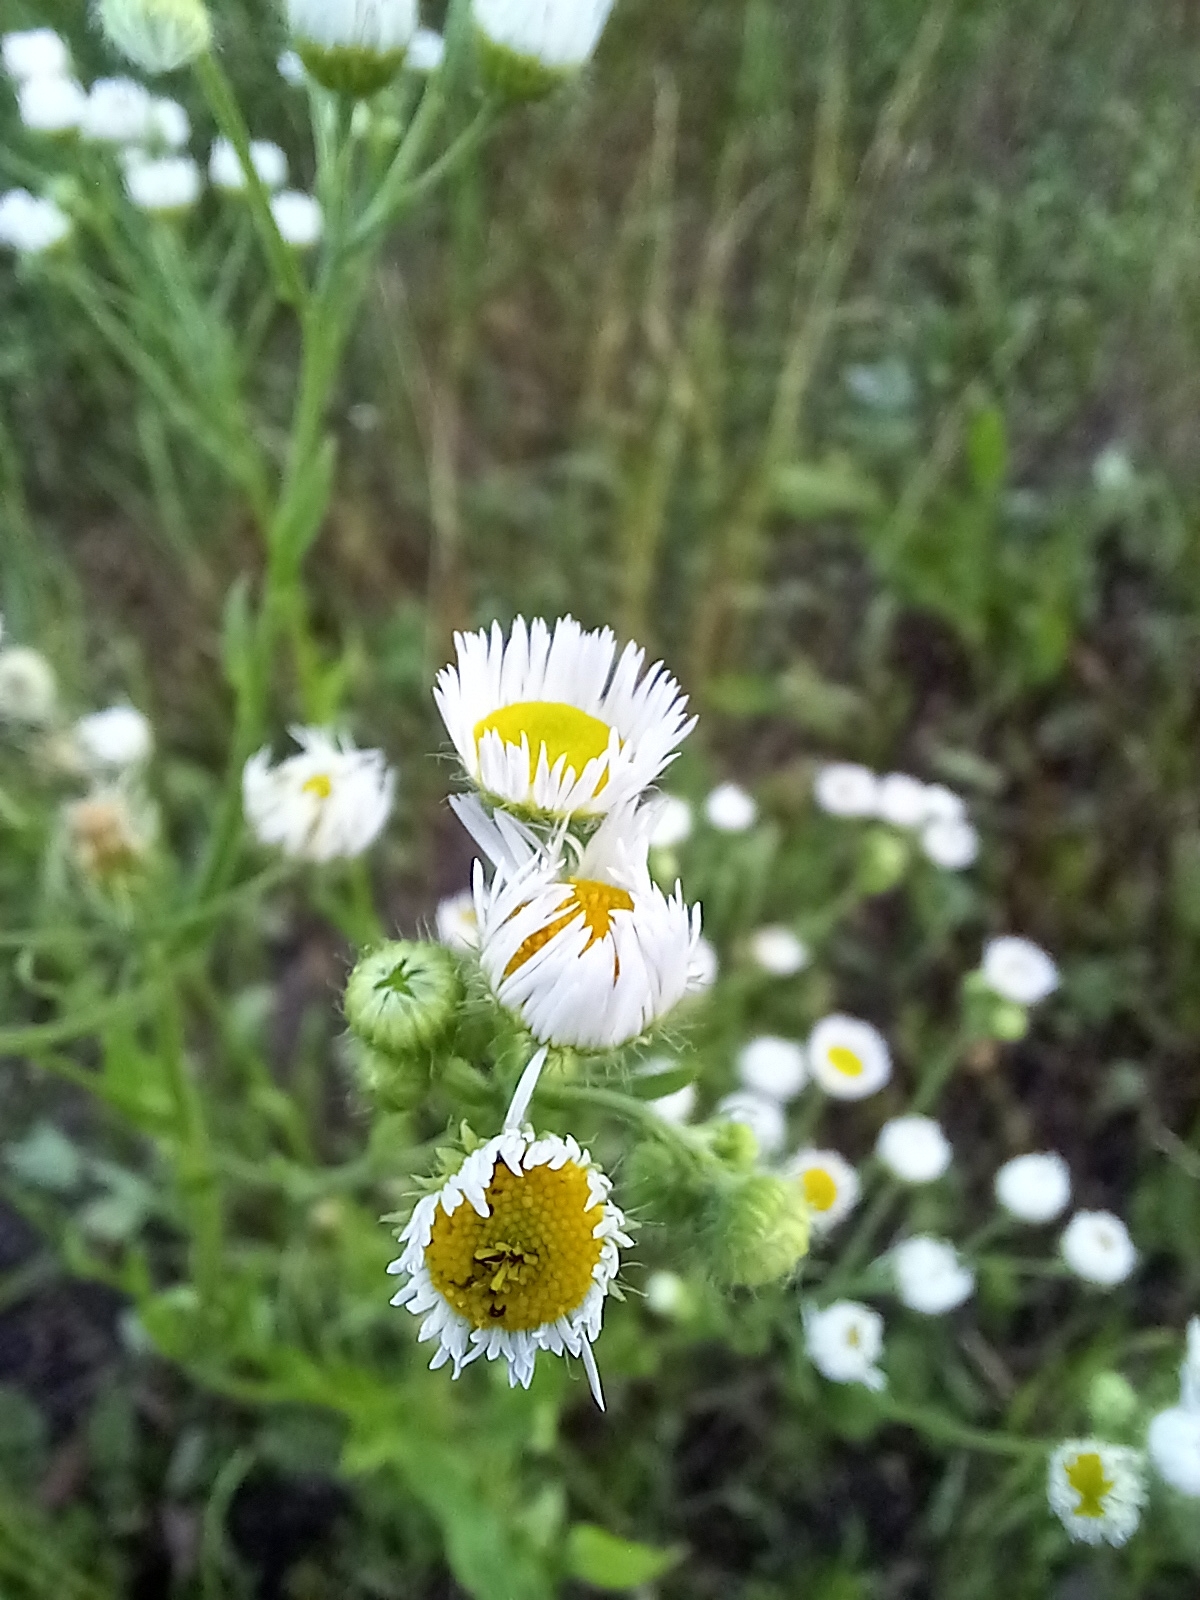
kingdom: Plantae
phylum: Tracheophyta
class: Magnoliopsida
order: Asterales
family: Asteraceae
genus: Erigeron
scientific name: Erigeron strigosus
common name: Common eastern fleabane
